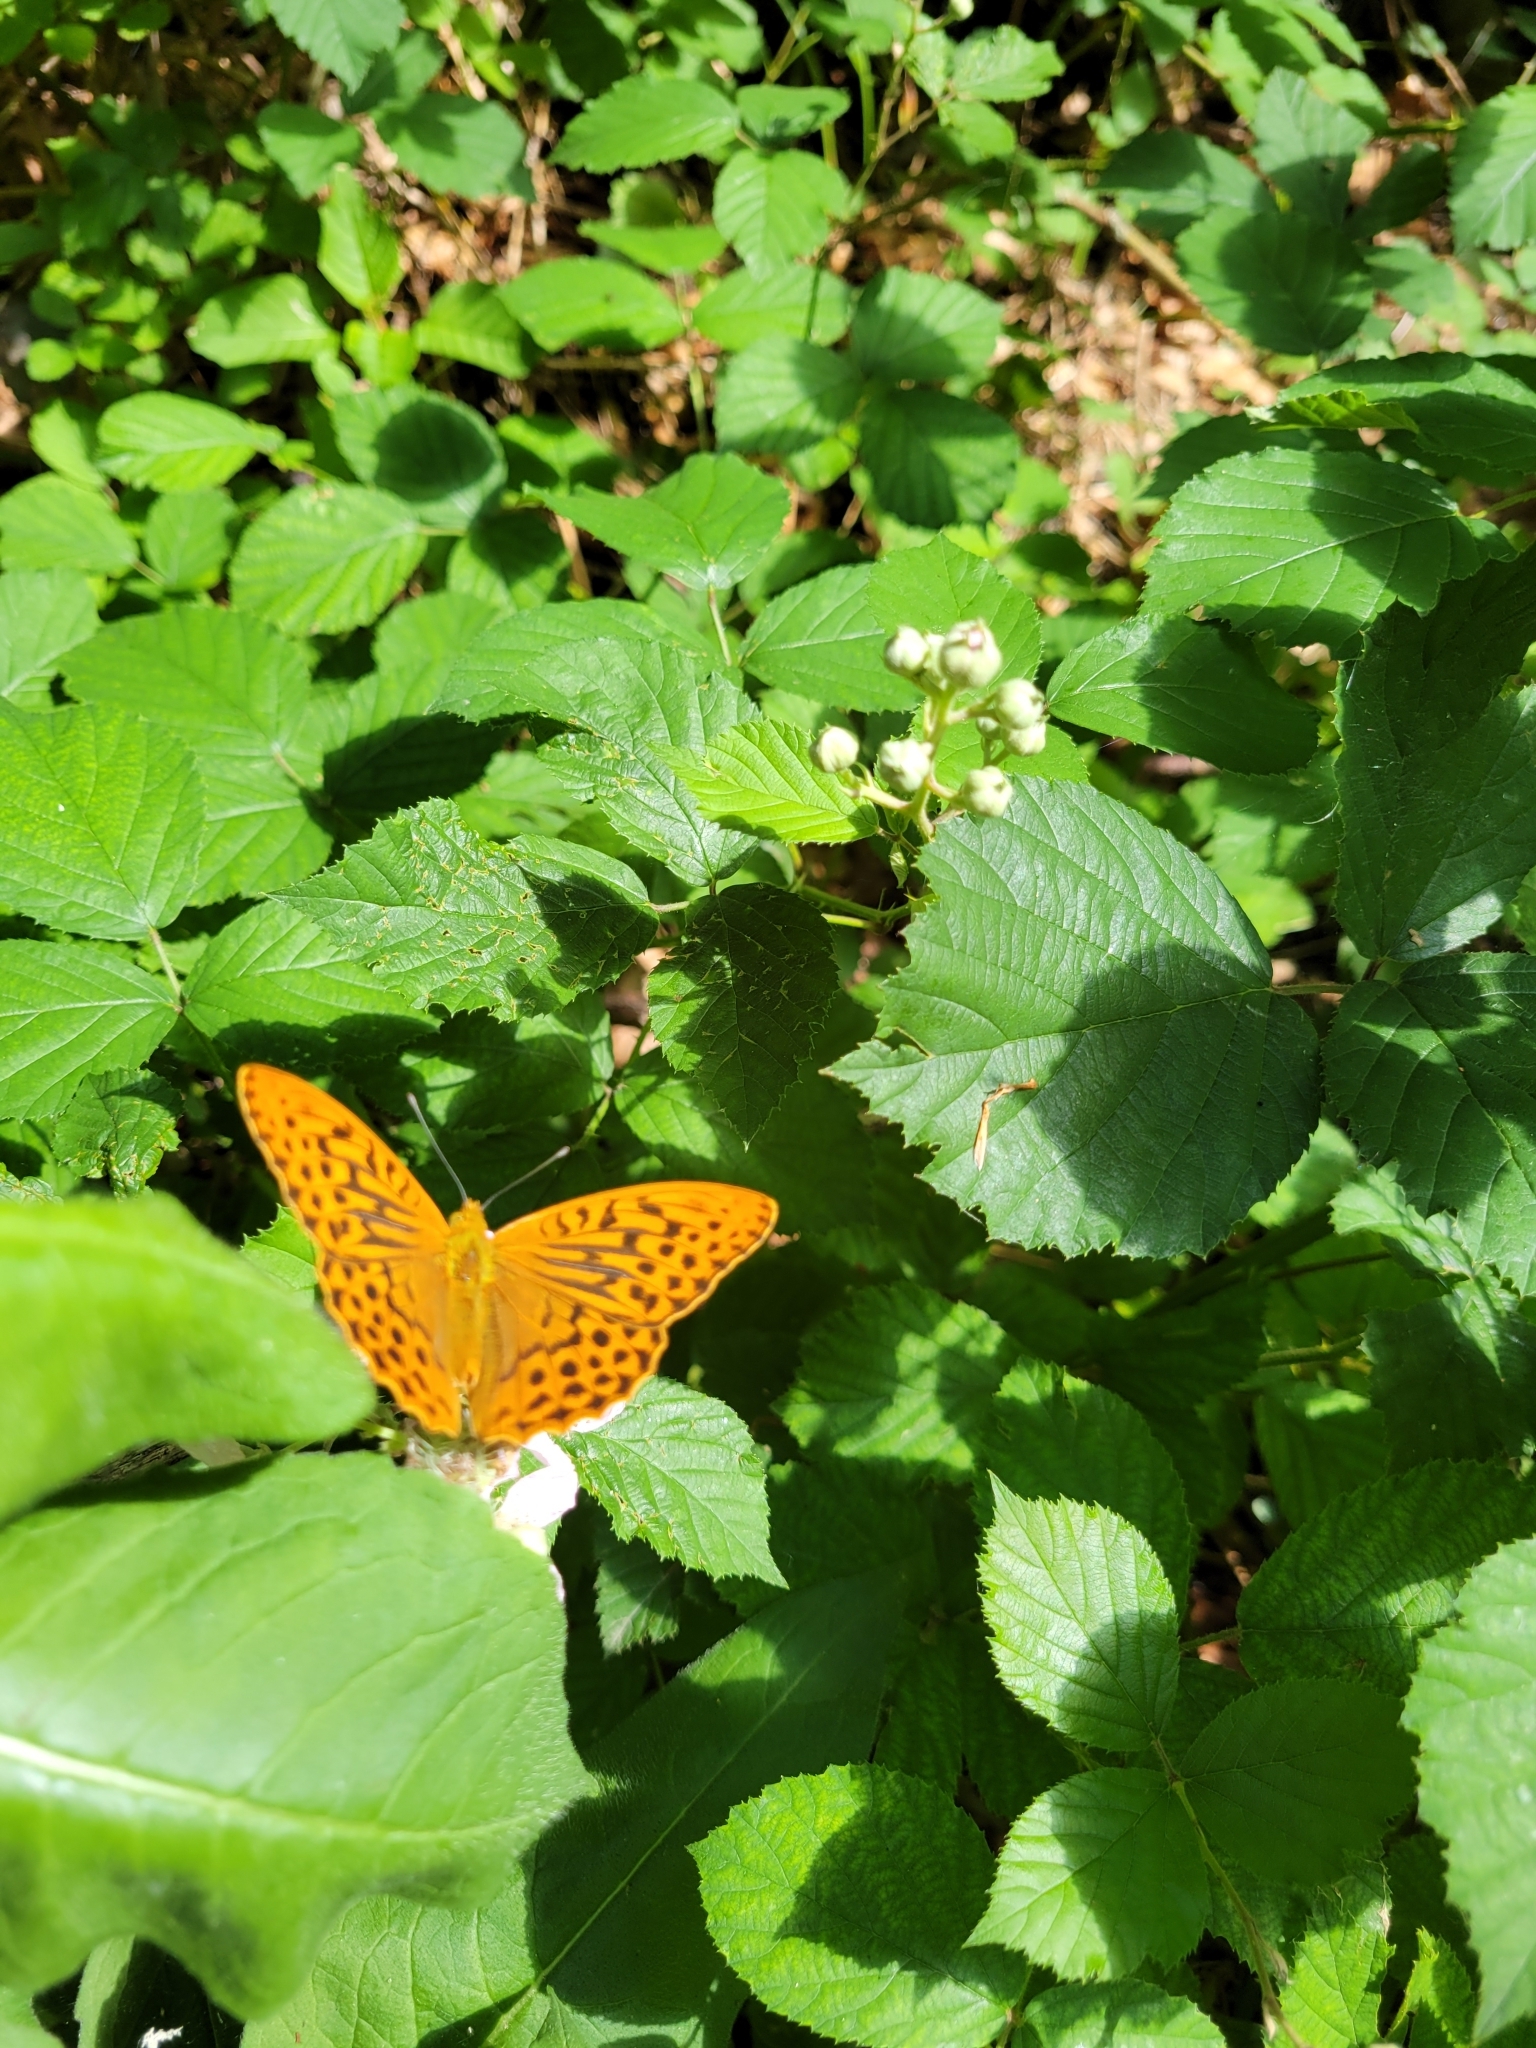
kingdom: Animalia
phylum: Arthropoda
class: Insecta
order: Lepidoptera
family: Nymphalidae
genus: Argynnis
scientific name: Argynnis paphia
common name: Silver-washed fritillary
